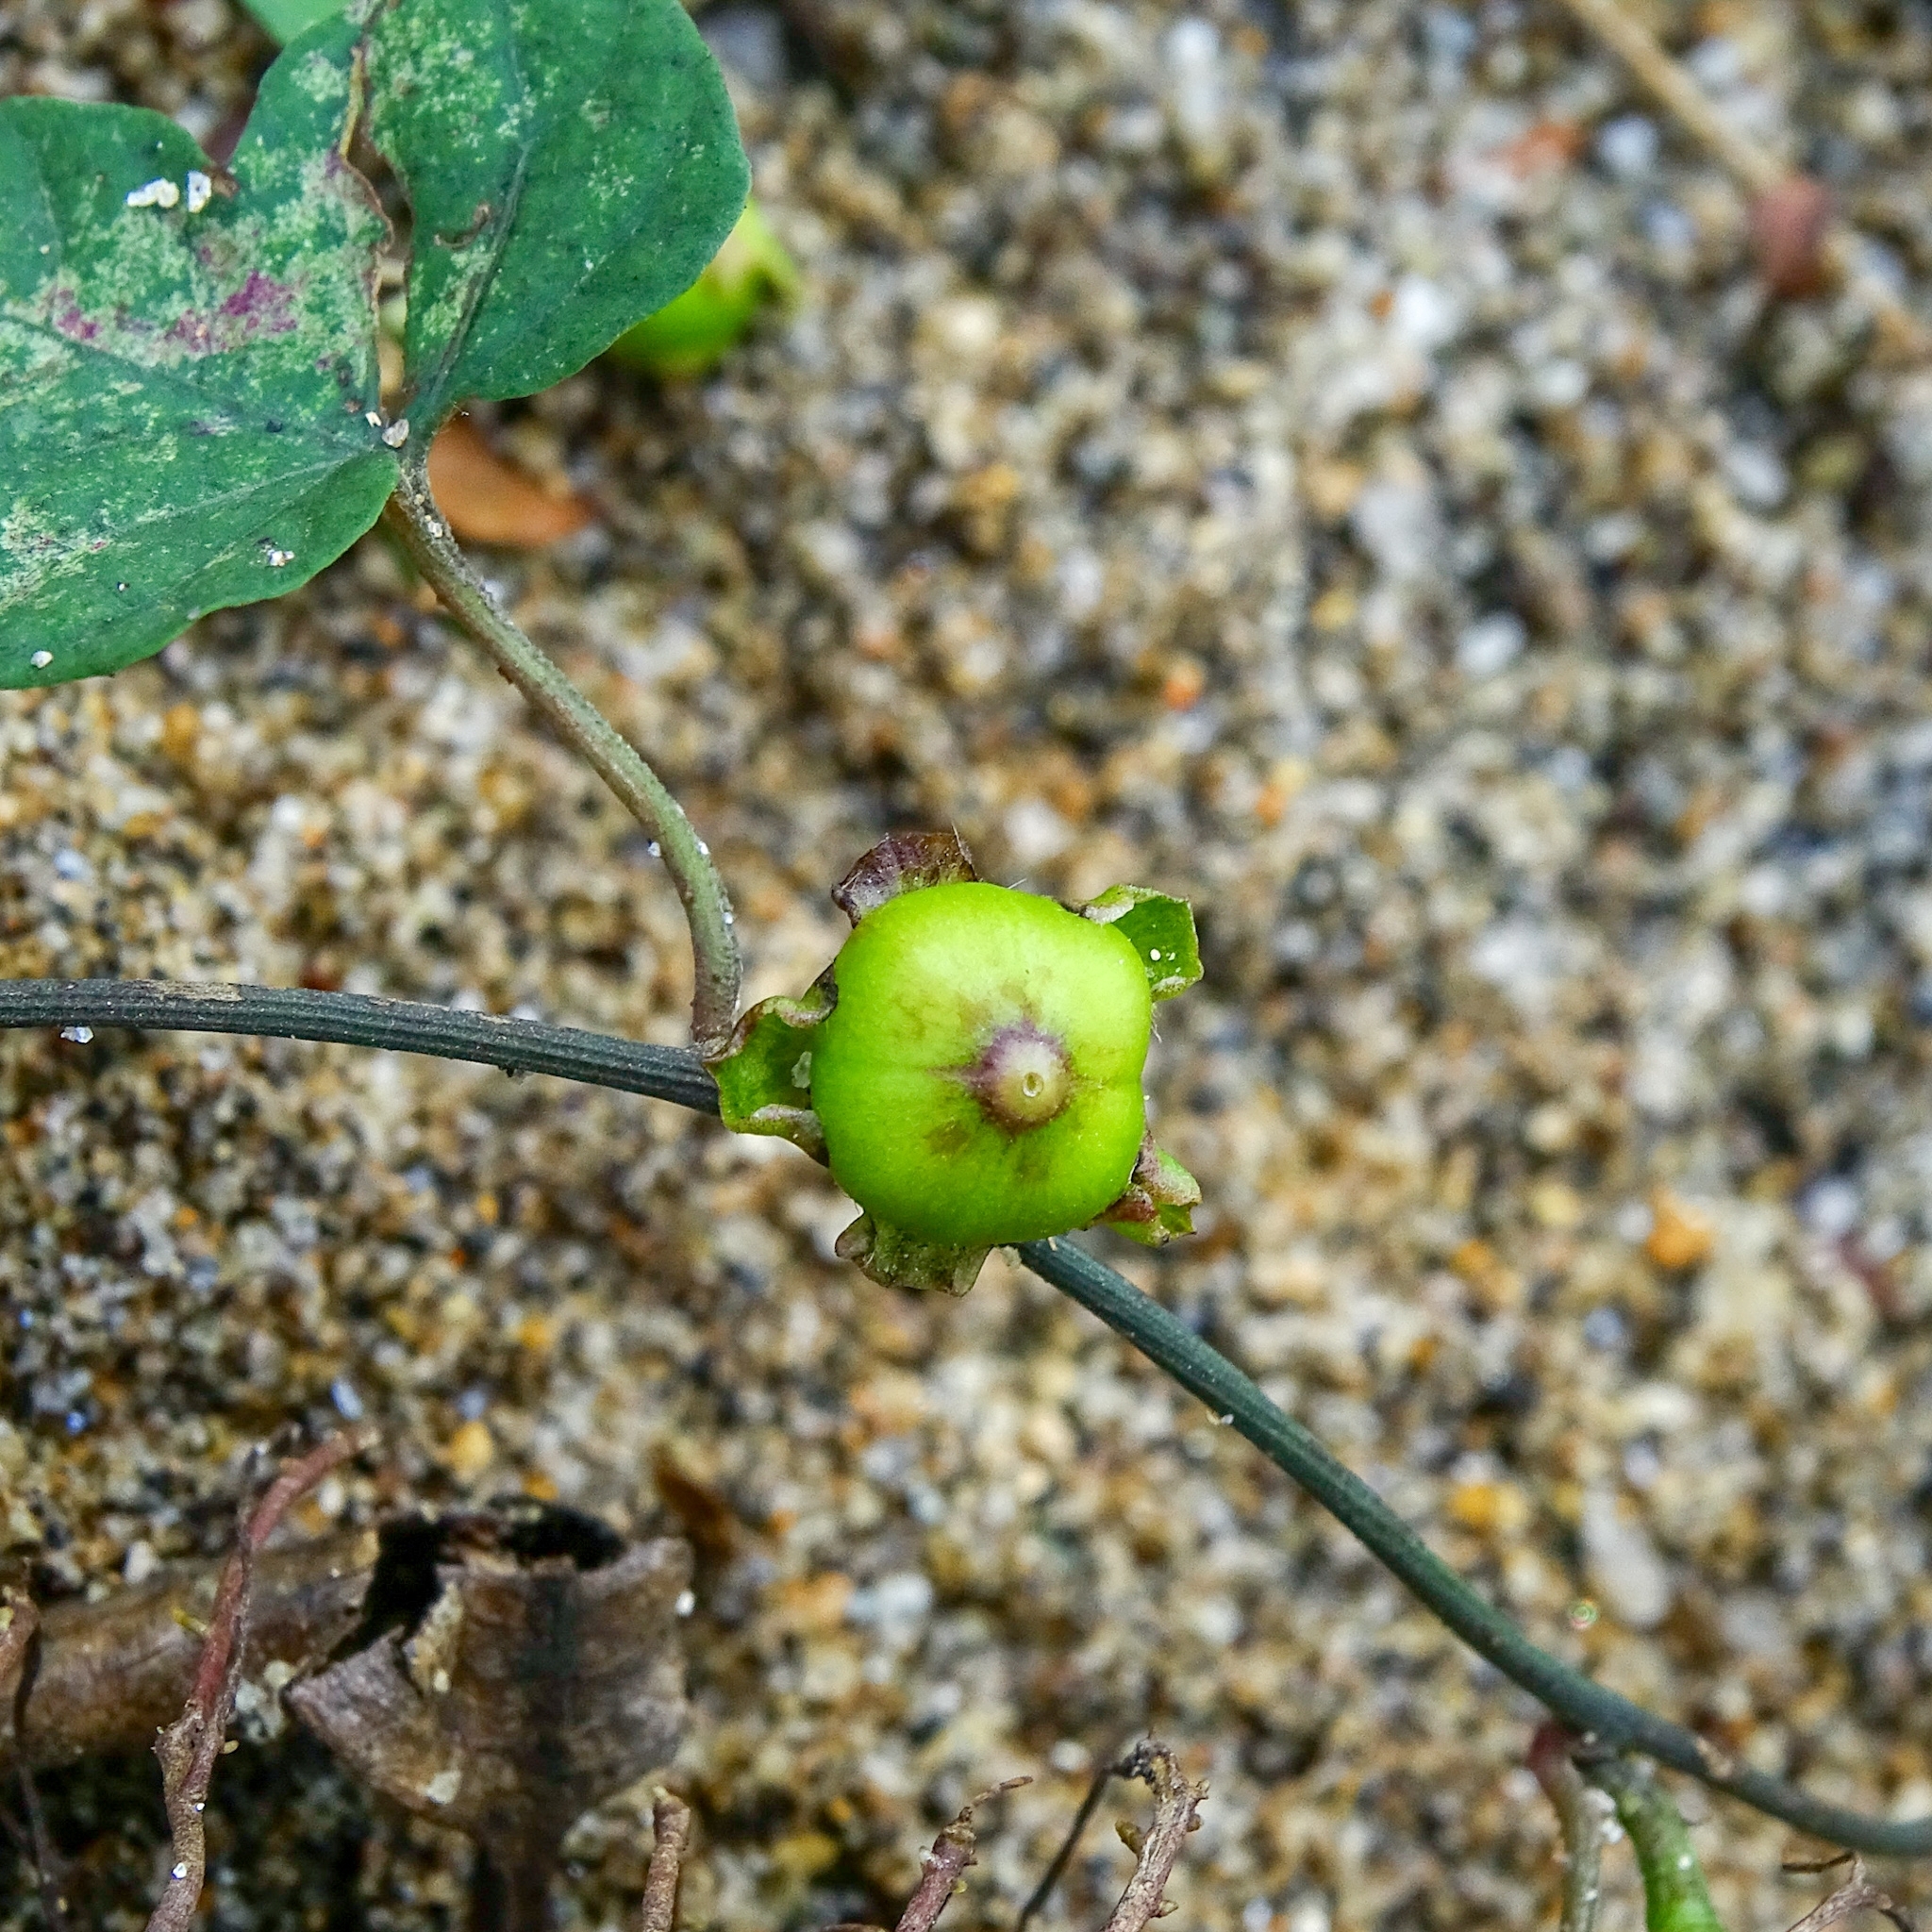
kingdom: Plantae
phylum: Tracheophyta
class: Magnoliopsida
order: Solanales
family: Convolvulaceae
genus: Merremia
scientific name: Merremia hederacea
